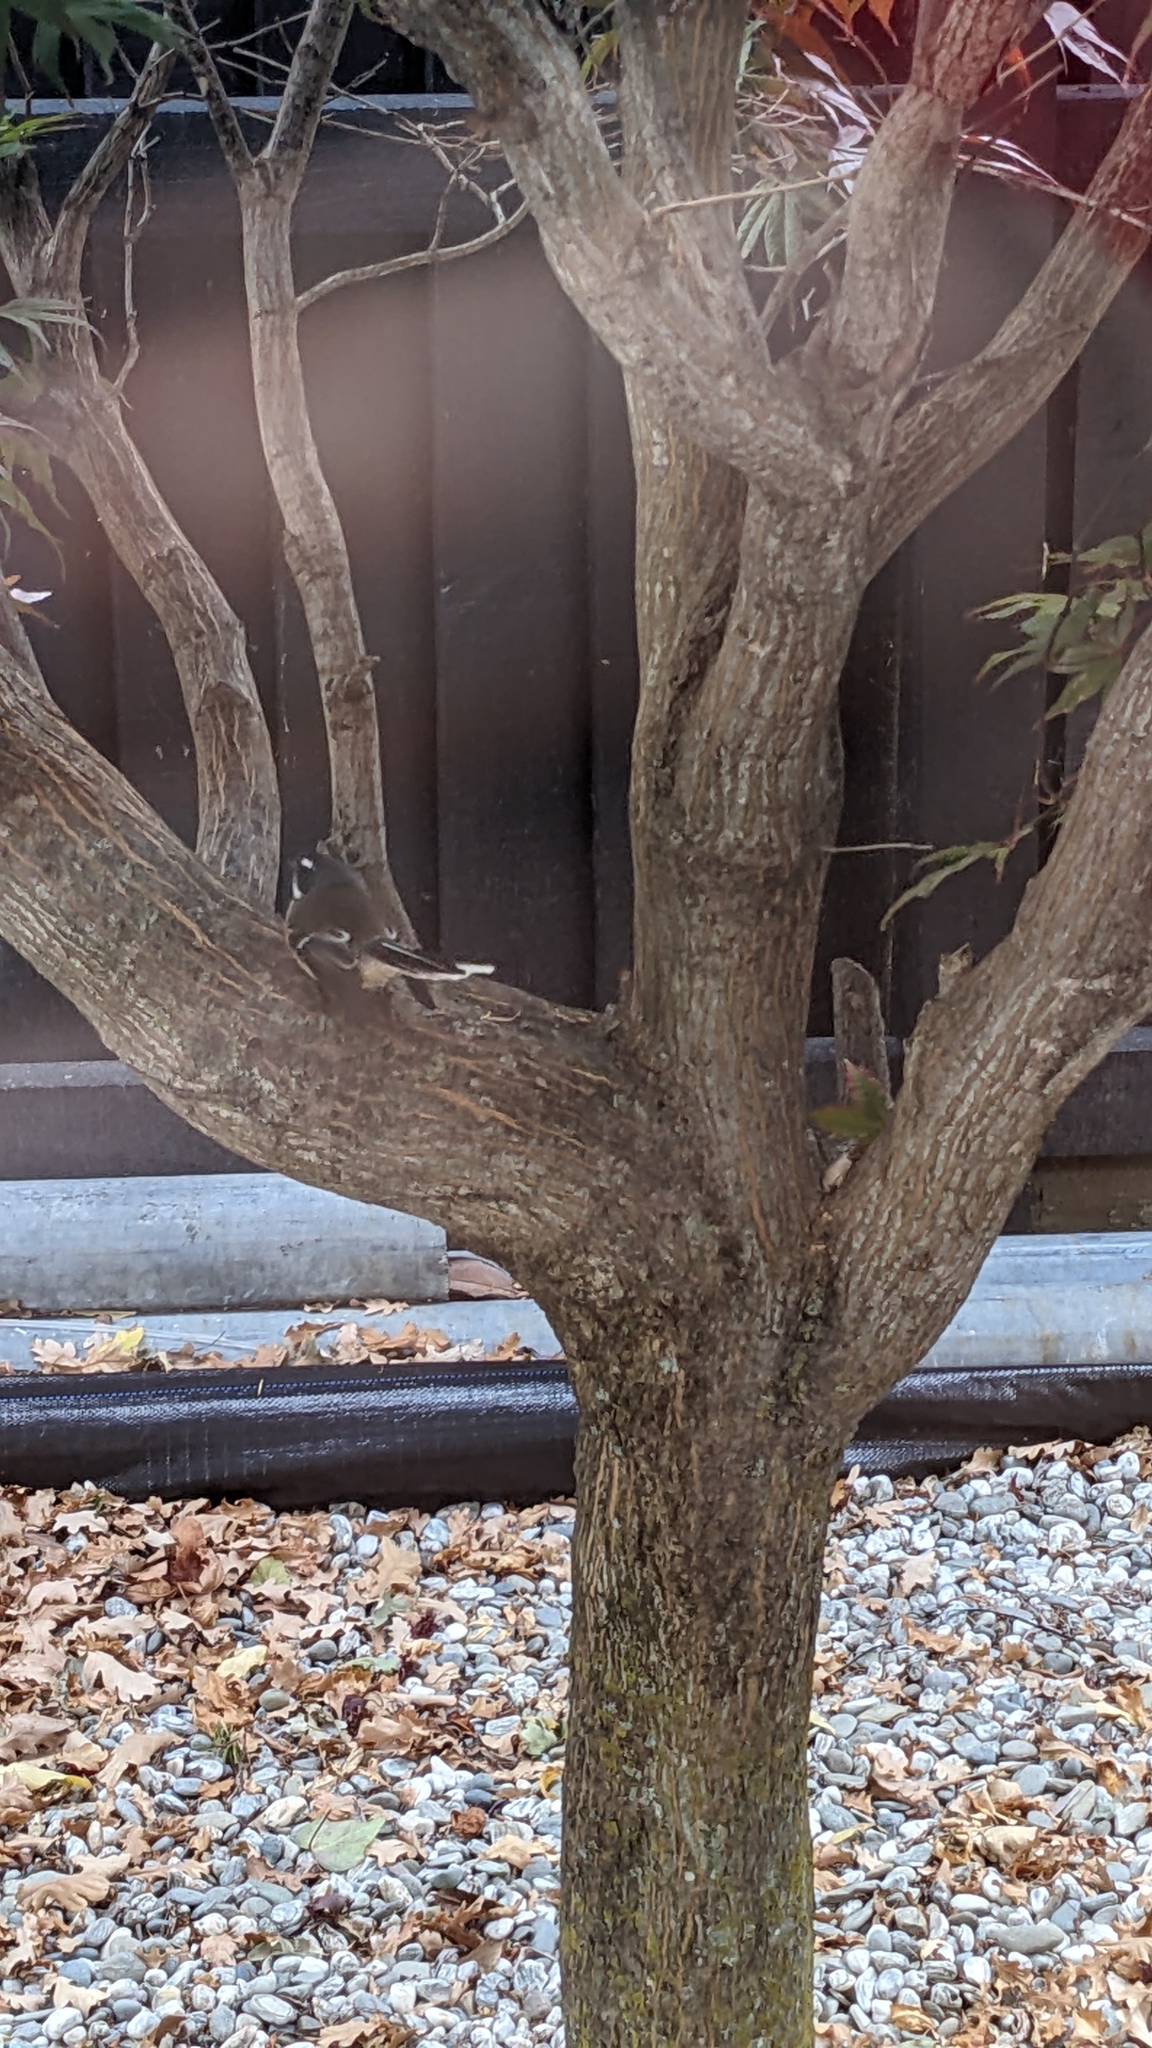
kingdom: Animalia
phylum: Chordata
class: Aves
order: Passeriformes
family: Rhipiduridae
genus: Rhipidura
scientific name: Rhipidura fuliginosa
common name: New zealand fantail
